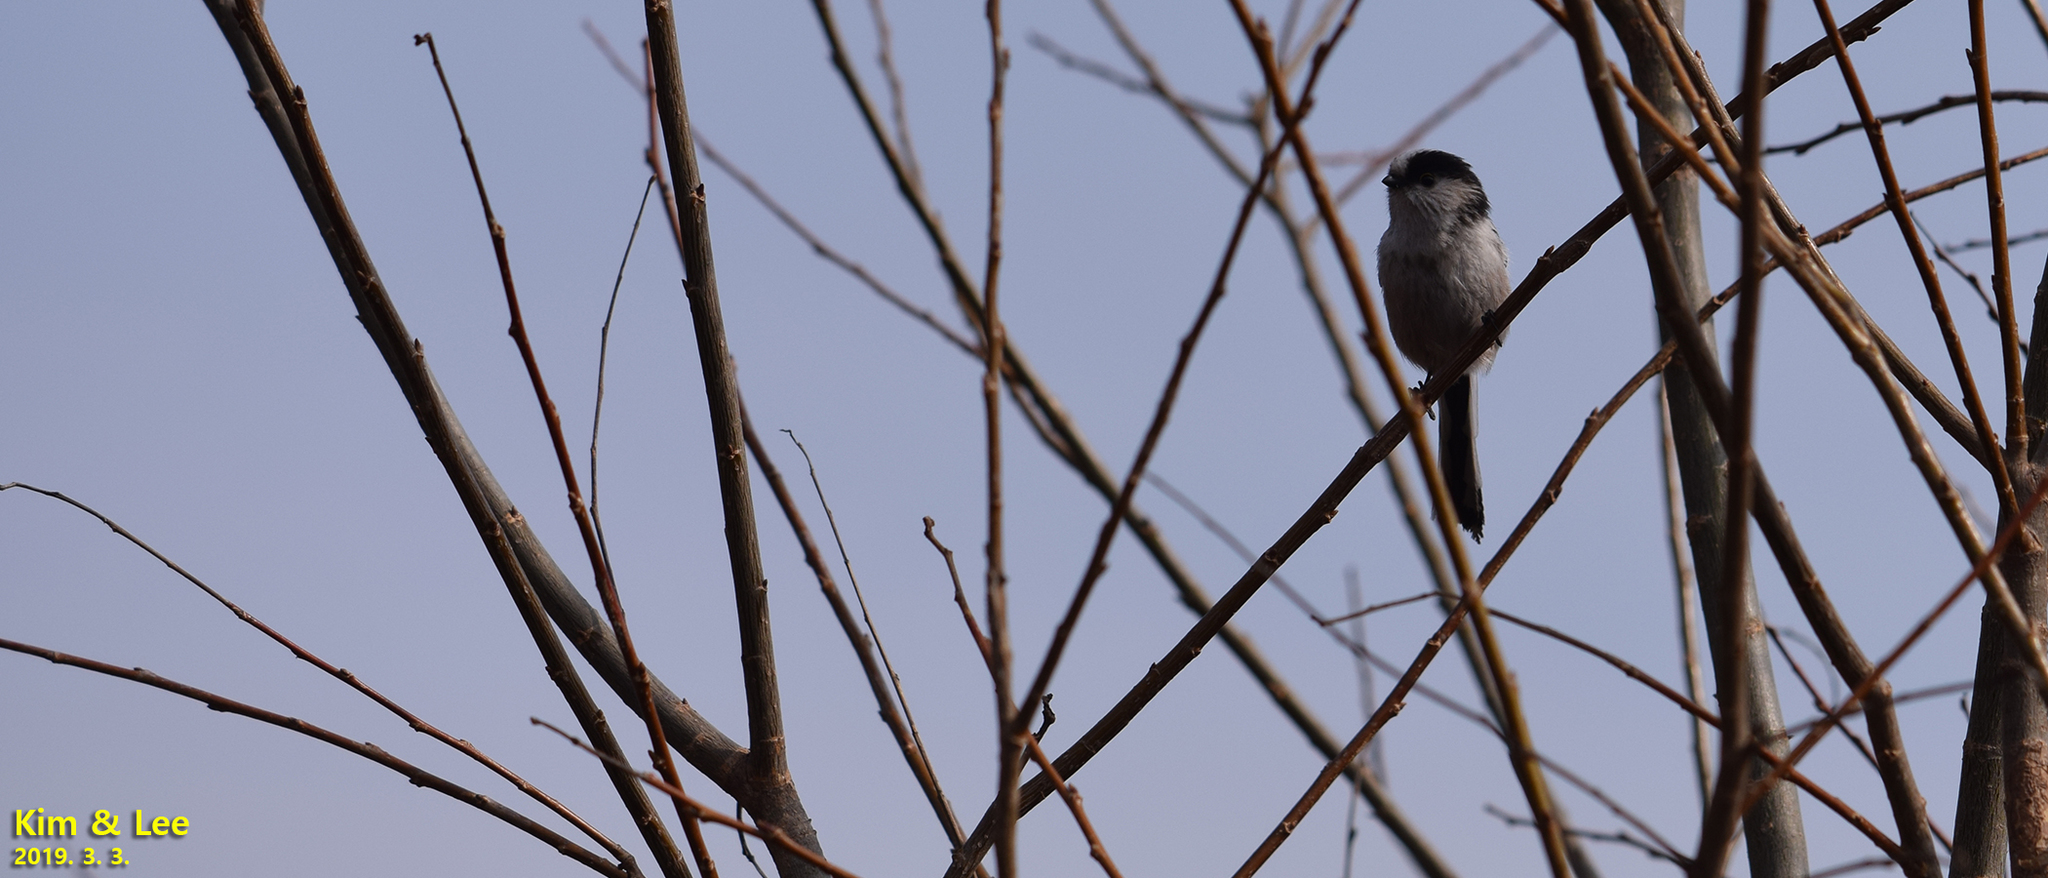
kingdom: Animalia
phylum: Chordata
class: Aves
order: Passeriformes
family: Aegithalidae
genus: Aegithalos
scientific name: Aegithalos caudatus
